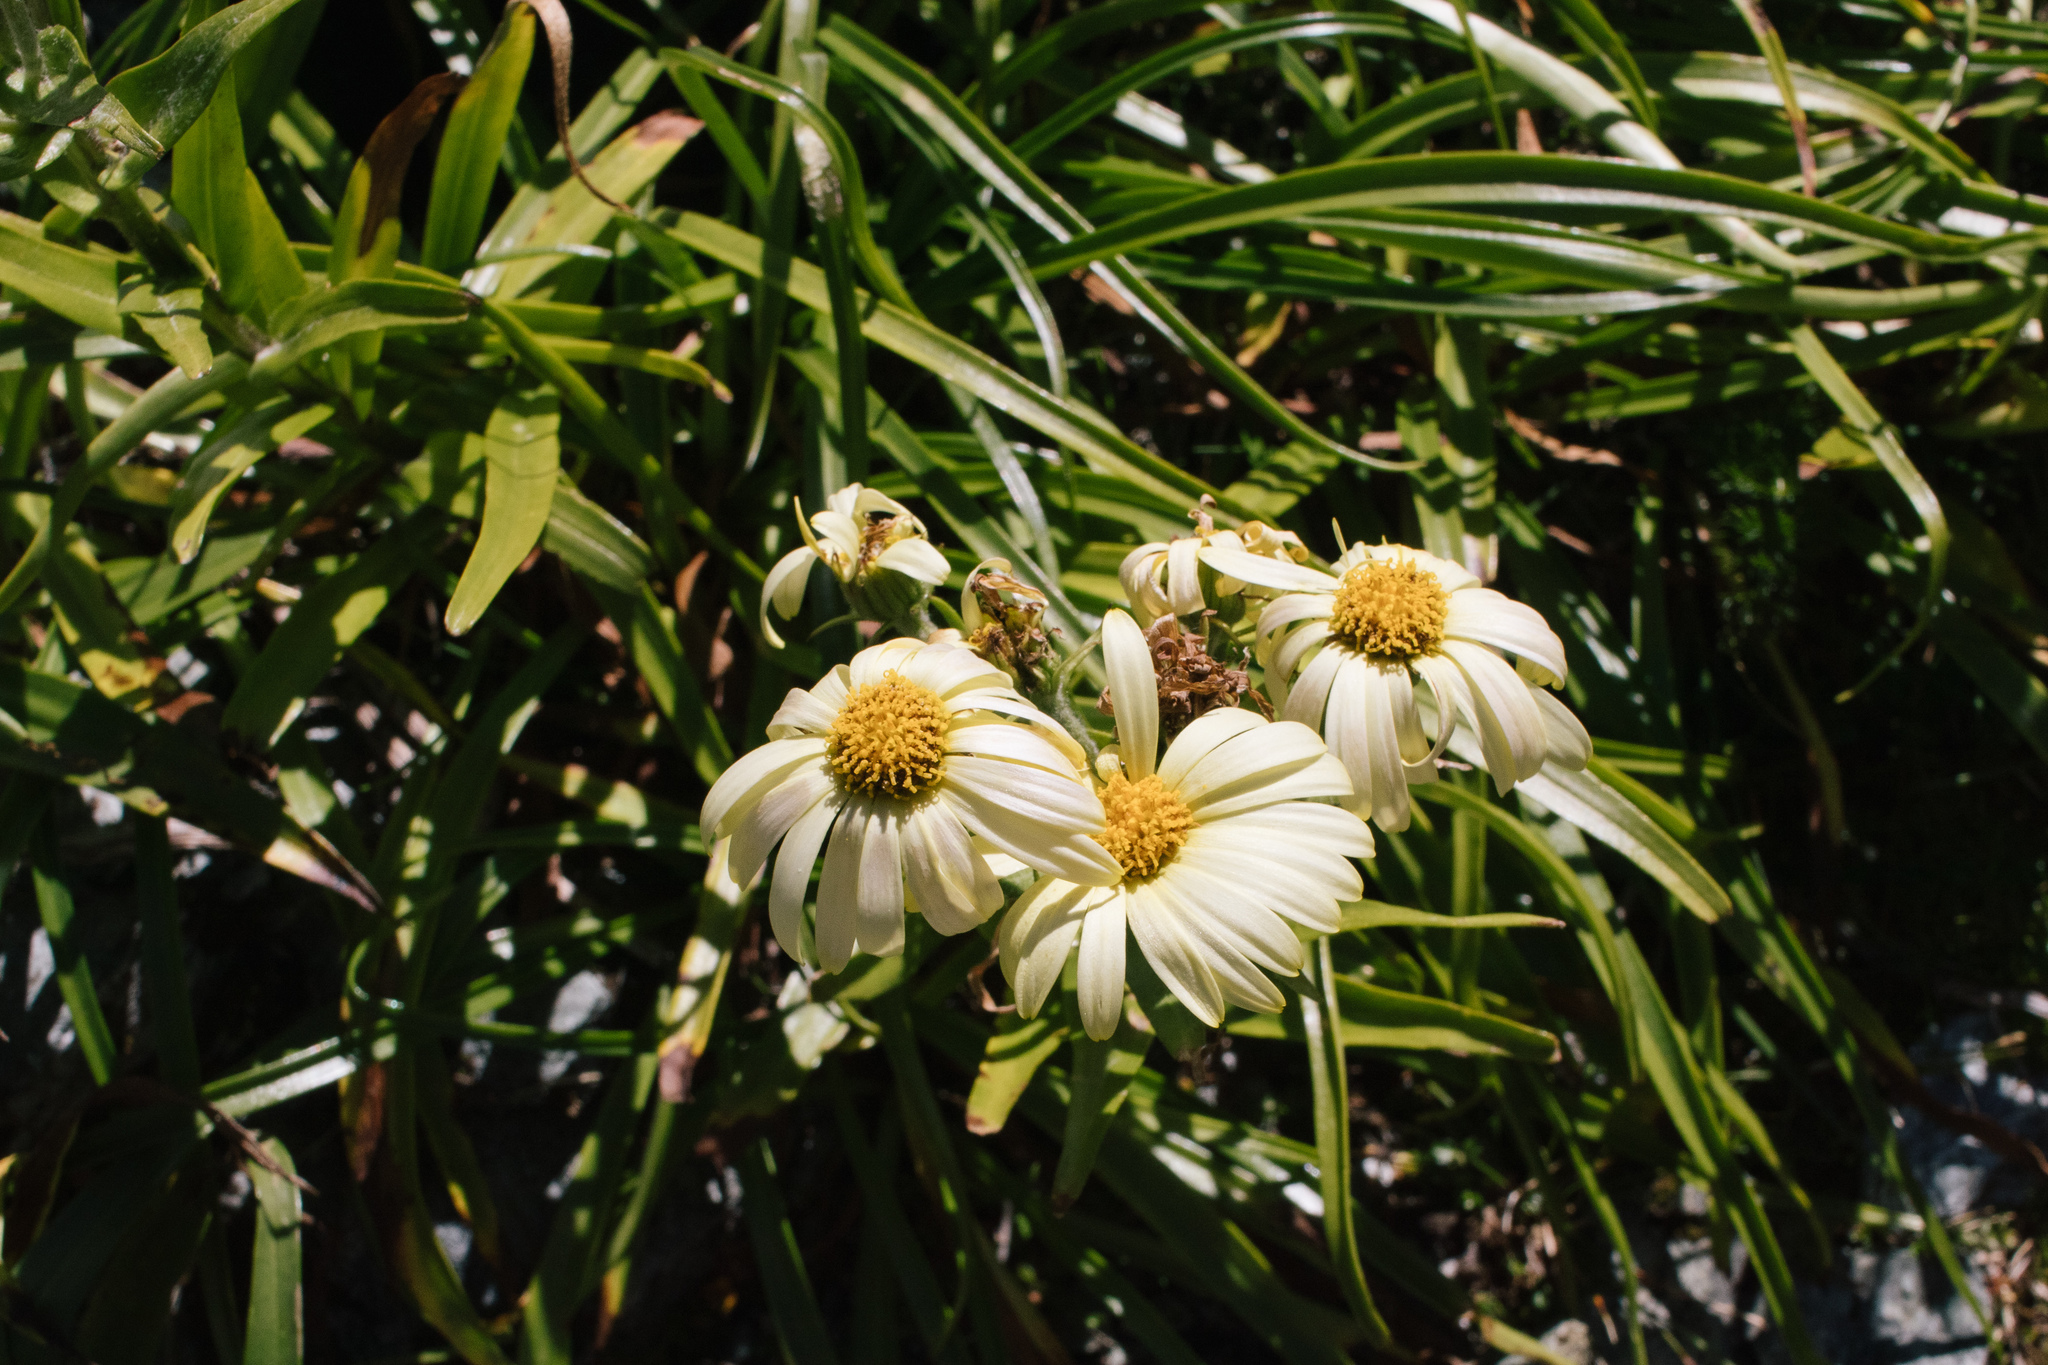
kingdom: Plantae
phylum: Tracheophyta
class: Magnoliopsida
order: Asterales
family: Asteraceae
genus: Dolichoglottis
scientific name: Dolichoglottis
